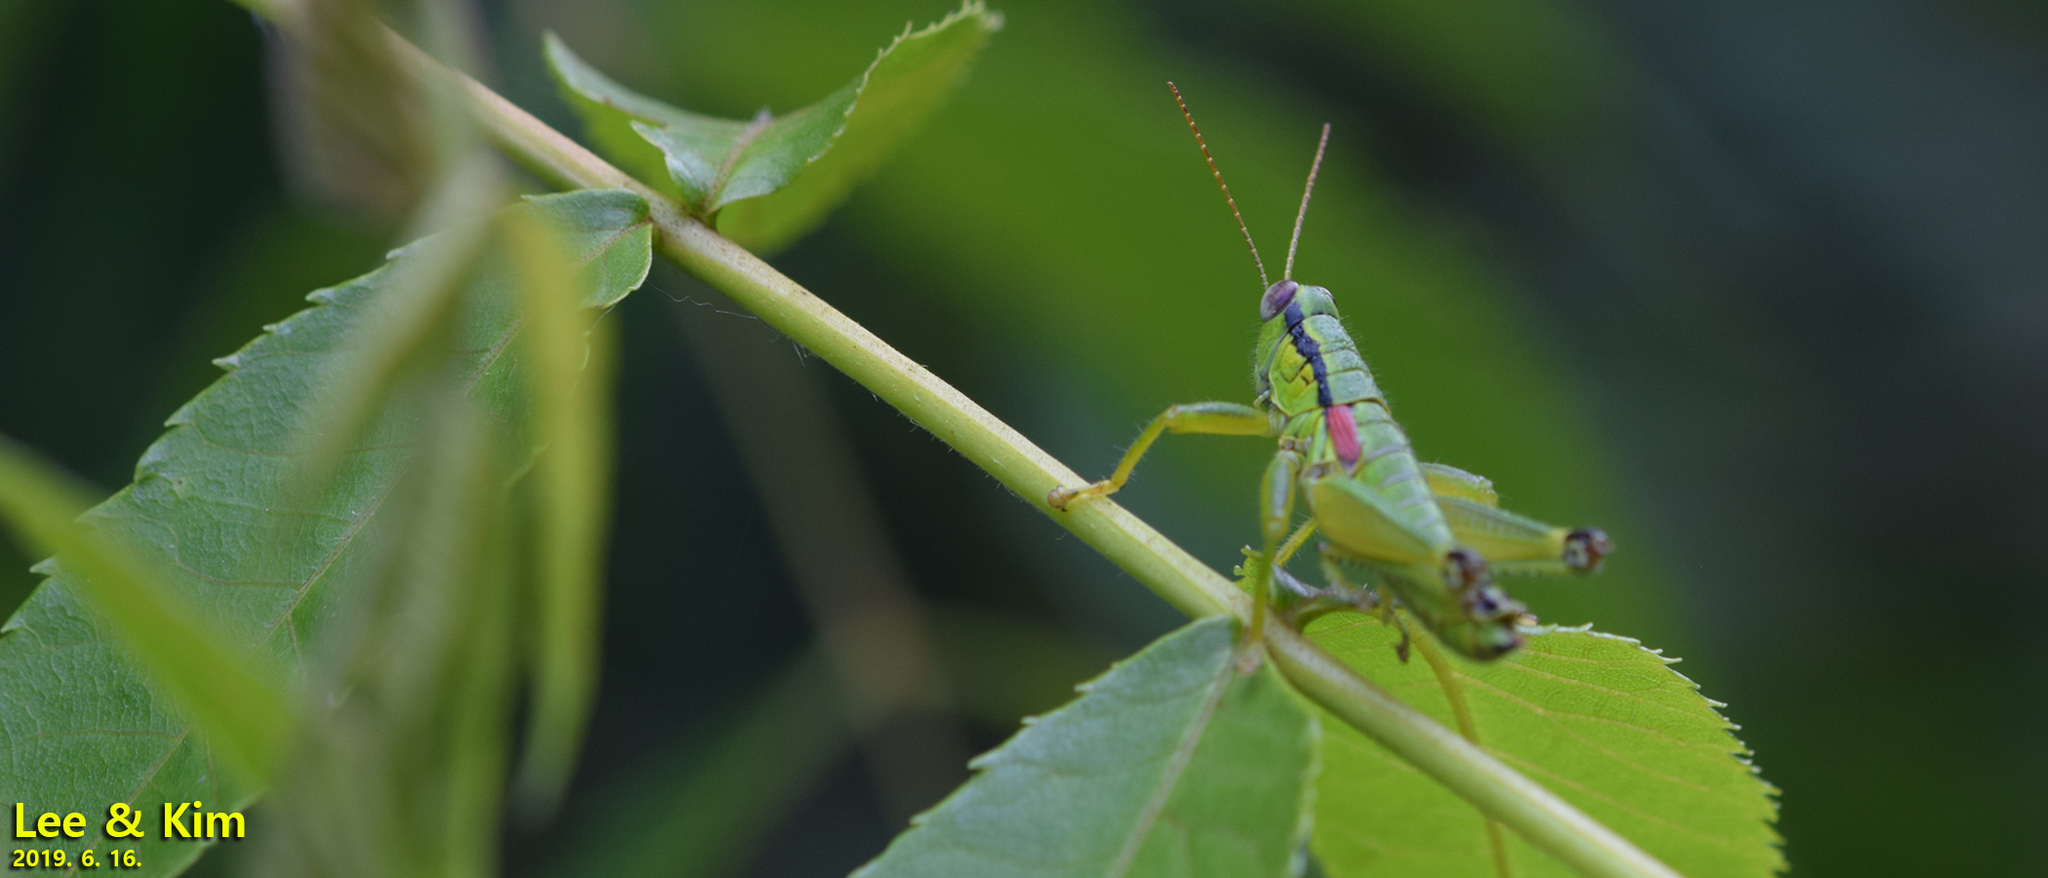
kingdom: Animalia
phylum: Arthropoda
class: Insecta
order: Orthoptera
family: Acrididae
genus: Anapodisma
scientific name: Anapodisma miramae
